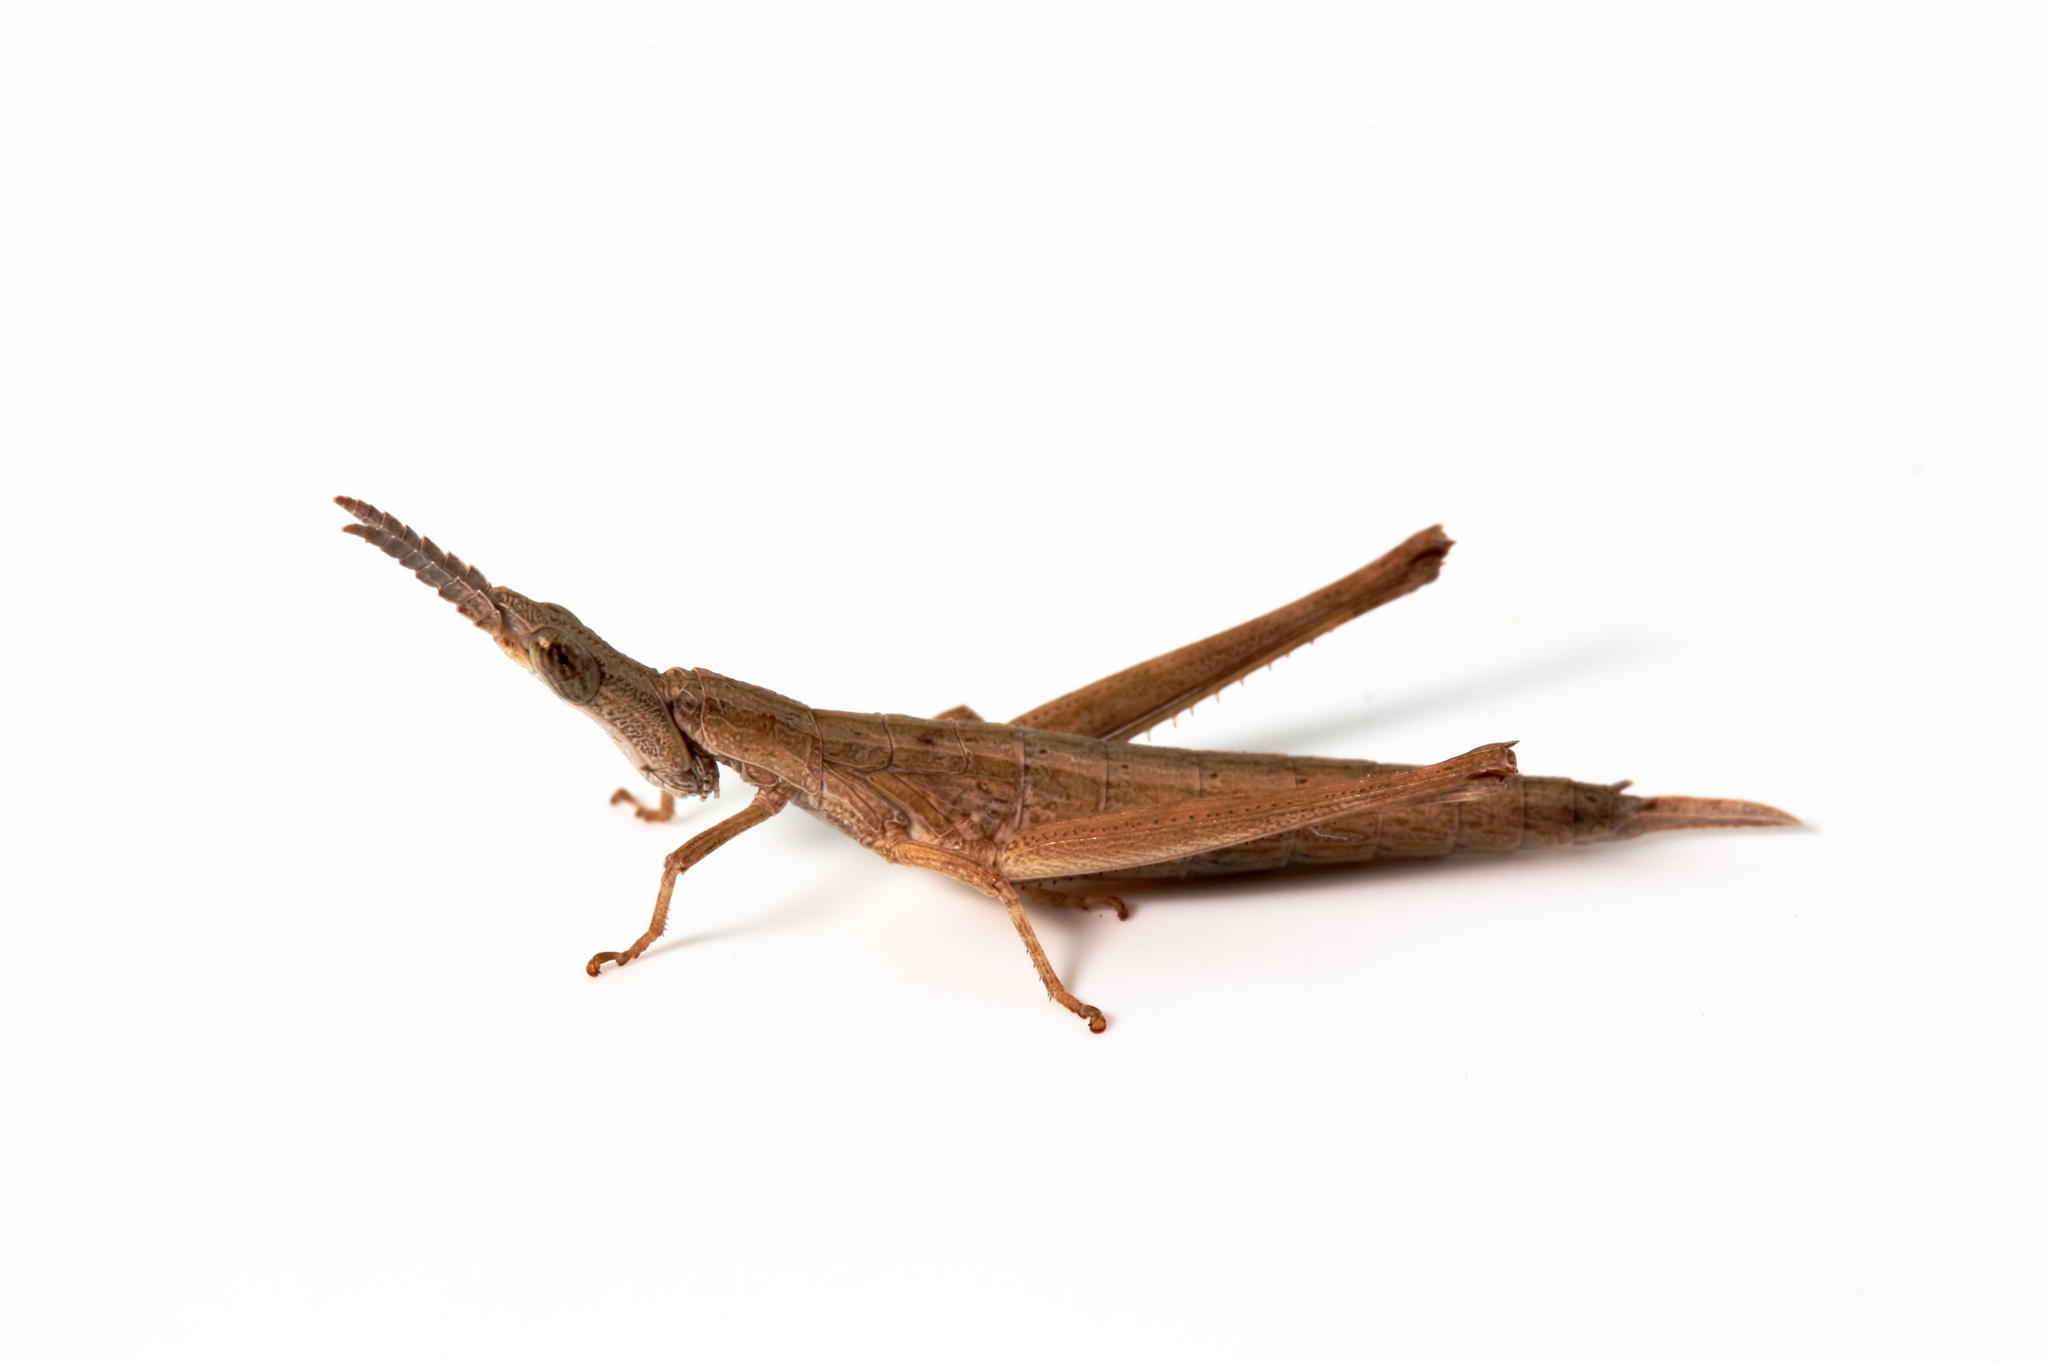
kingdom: Animalia
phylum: Arthropoda
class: Insecta
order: Orthoptera
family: Morabidae
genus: Vandiemenella
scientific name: Vandiemenella viatica
